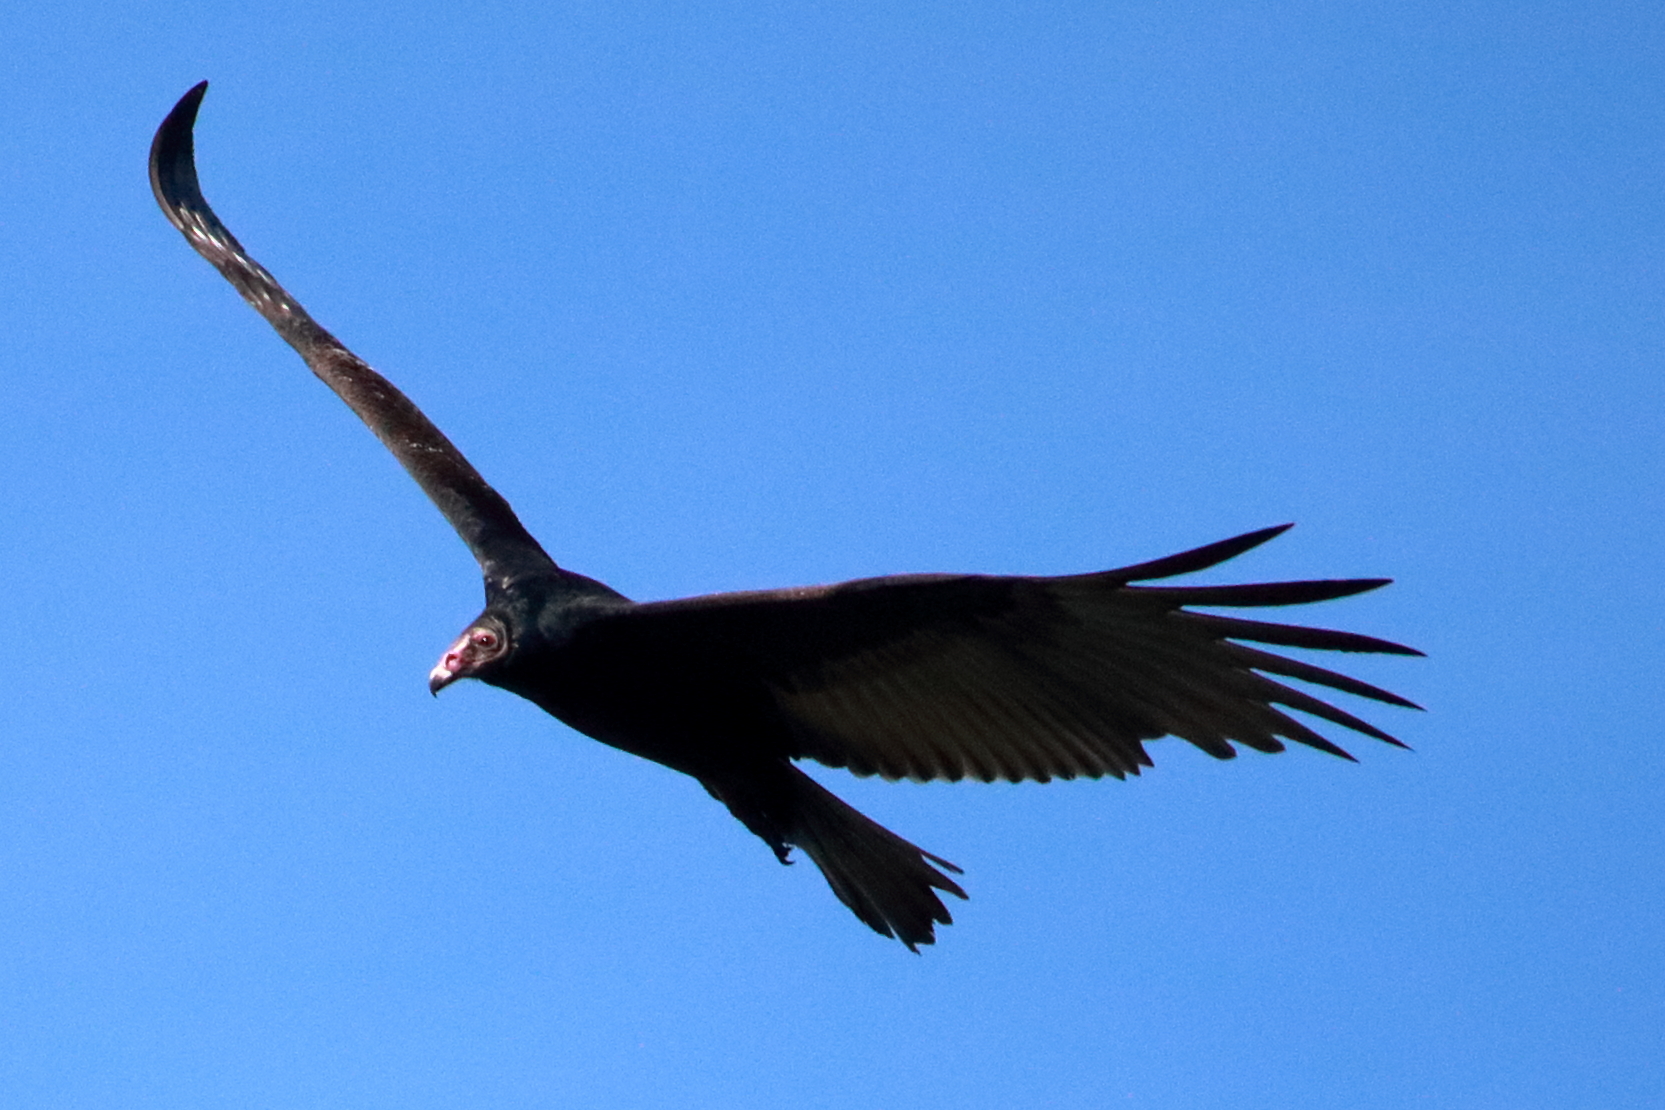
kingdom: Animalia
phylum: Chordata
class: Aves
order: Accipitriformes
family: Cathartidae
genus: Cathartes
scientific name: Cathartes aura
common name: Turkey vulture
